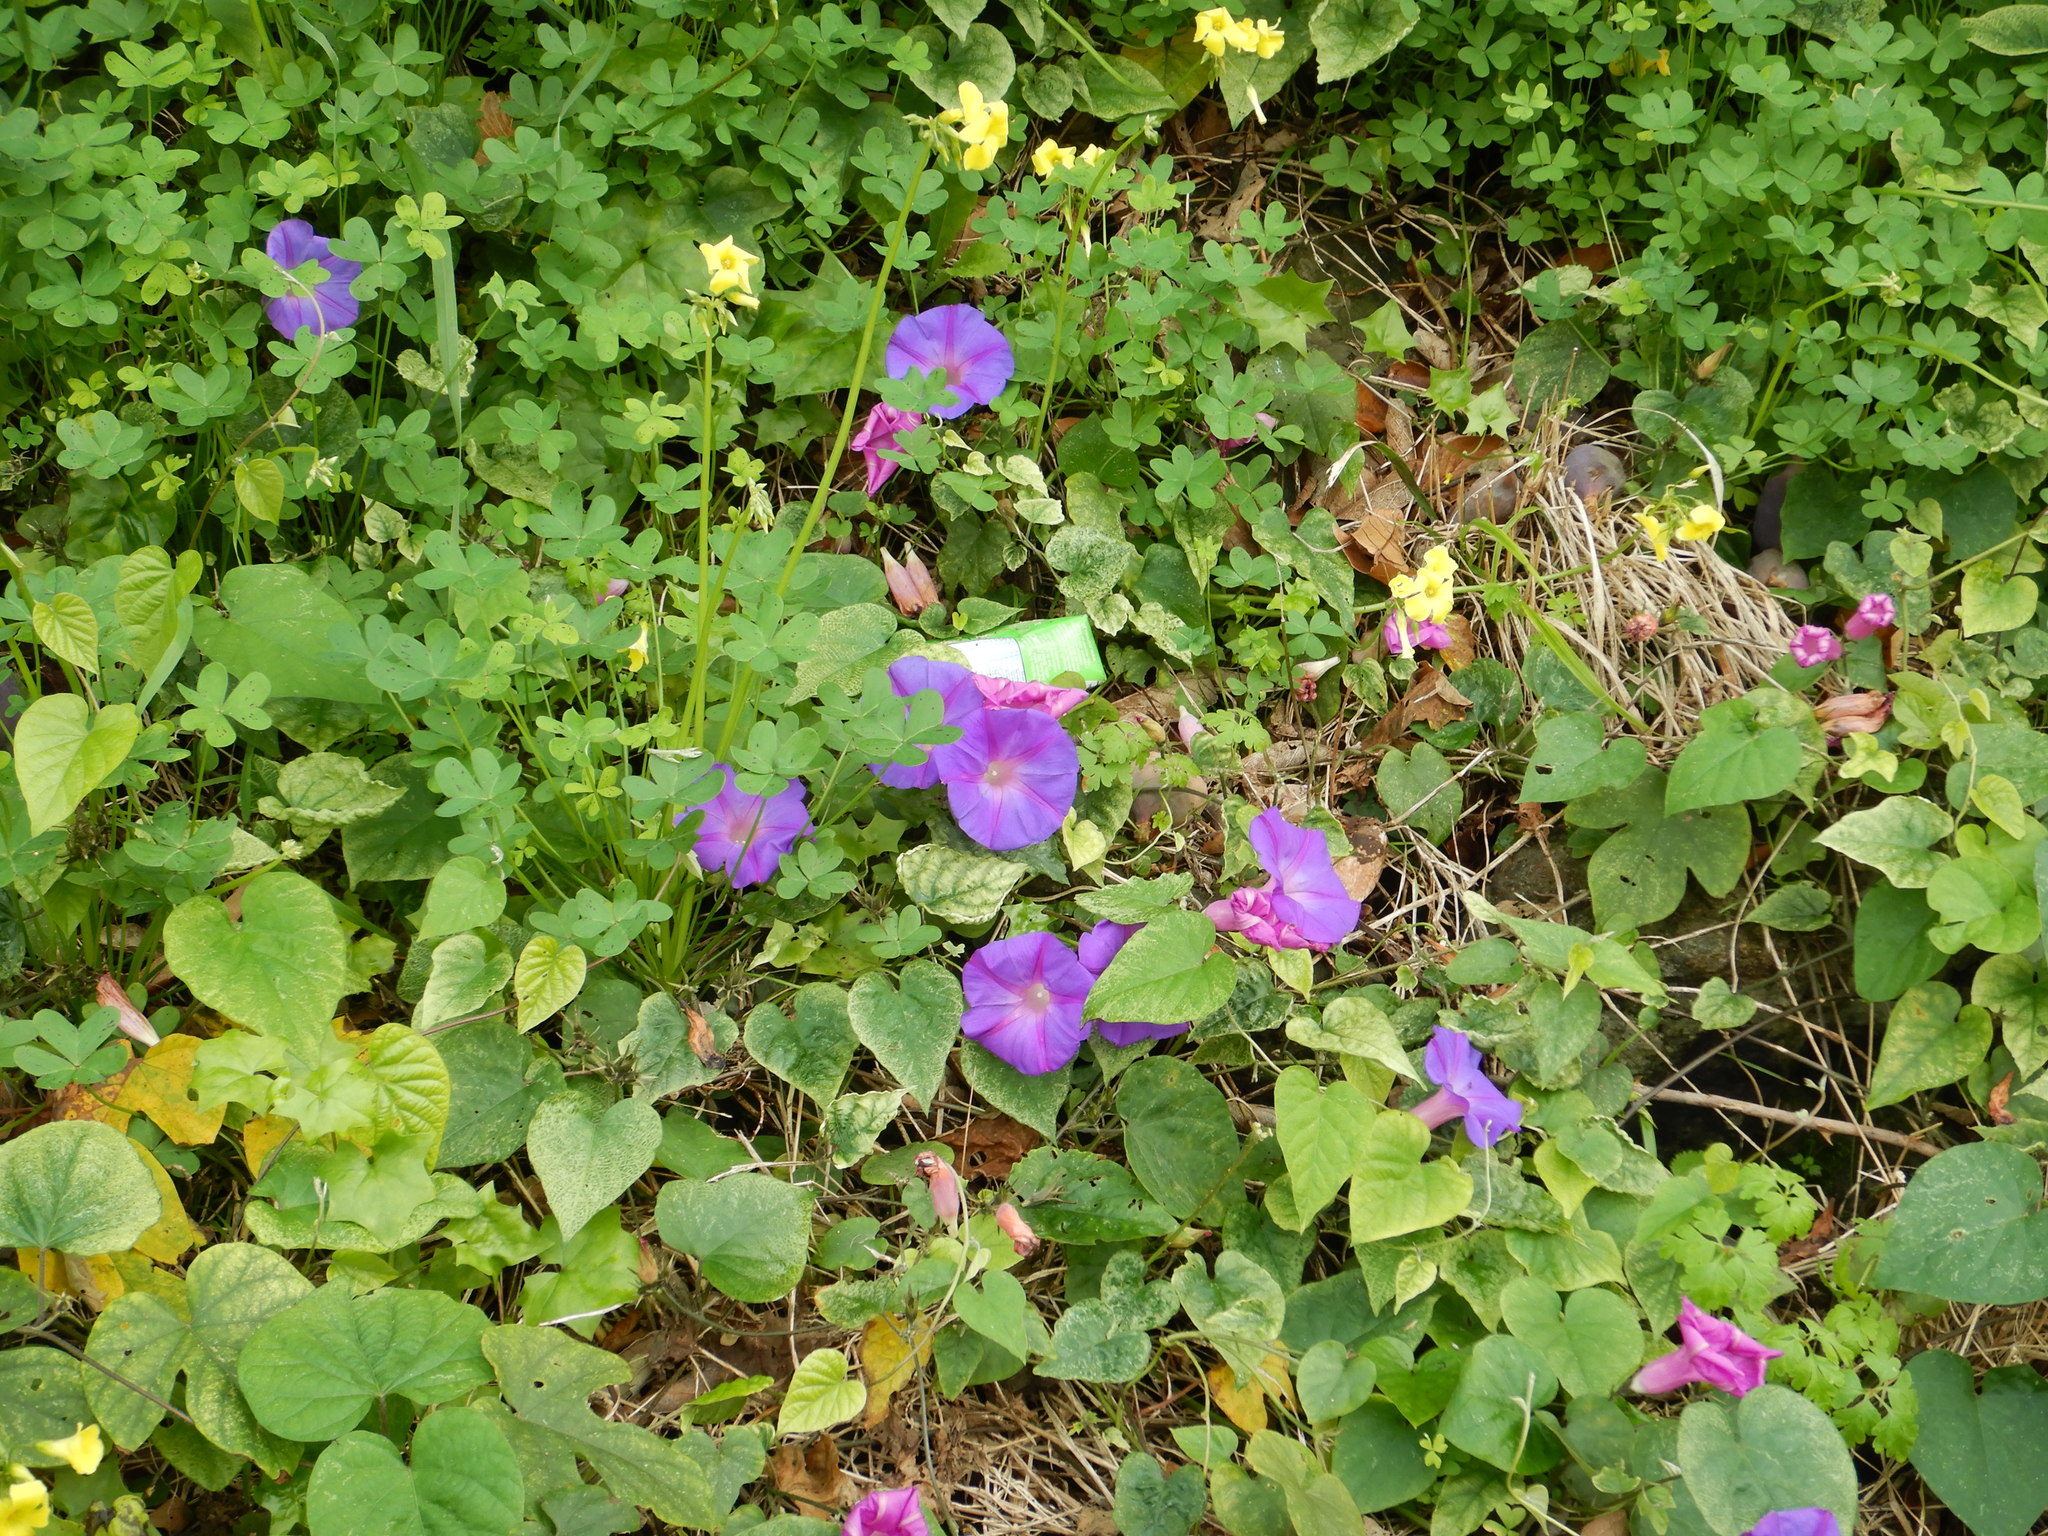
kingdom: Plantae
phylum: Tracheophyta
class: Magnoliopsida
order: Solanales
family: Convolvulaceae
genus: Ipomoea
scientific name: Ipomoea indica
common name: Blue dawnflower
